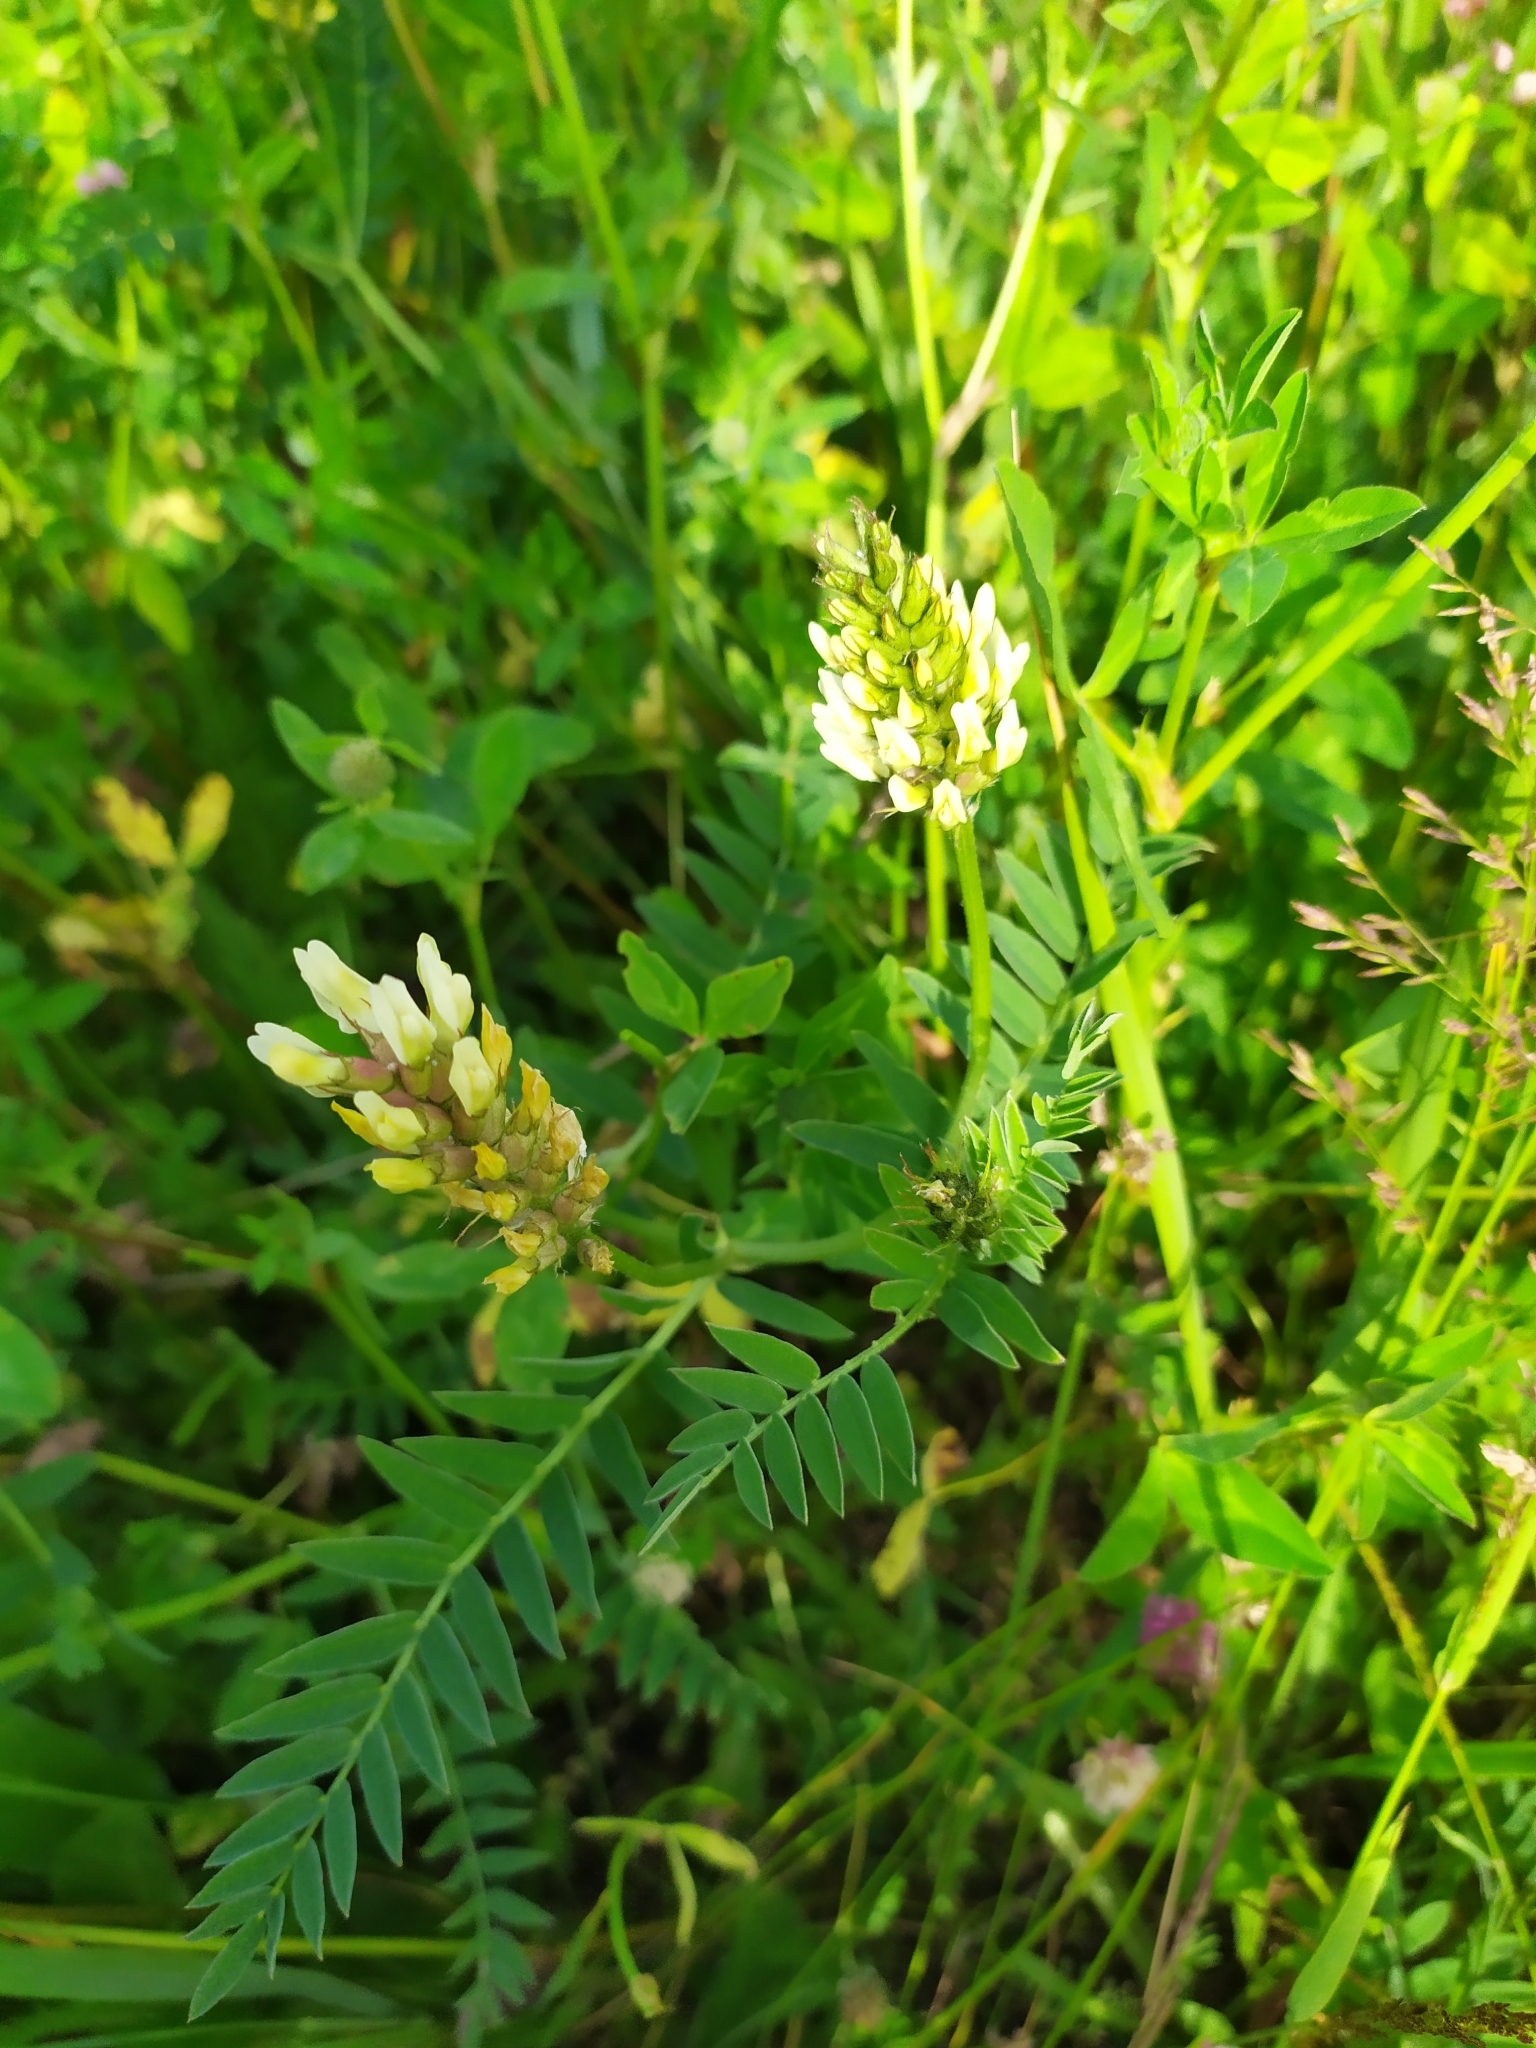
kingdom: Plantae
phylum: Tracheophyta
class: Magnoliopsida
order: Fabales
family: Fabaceae
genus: Astragalus
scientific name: Astragalus cicer
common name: Chick-pea milk-vetch
